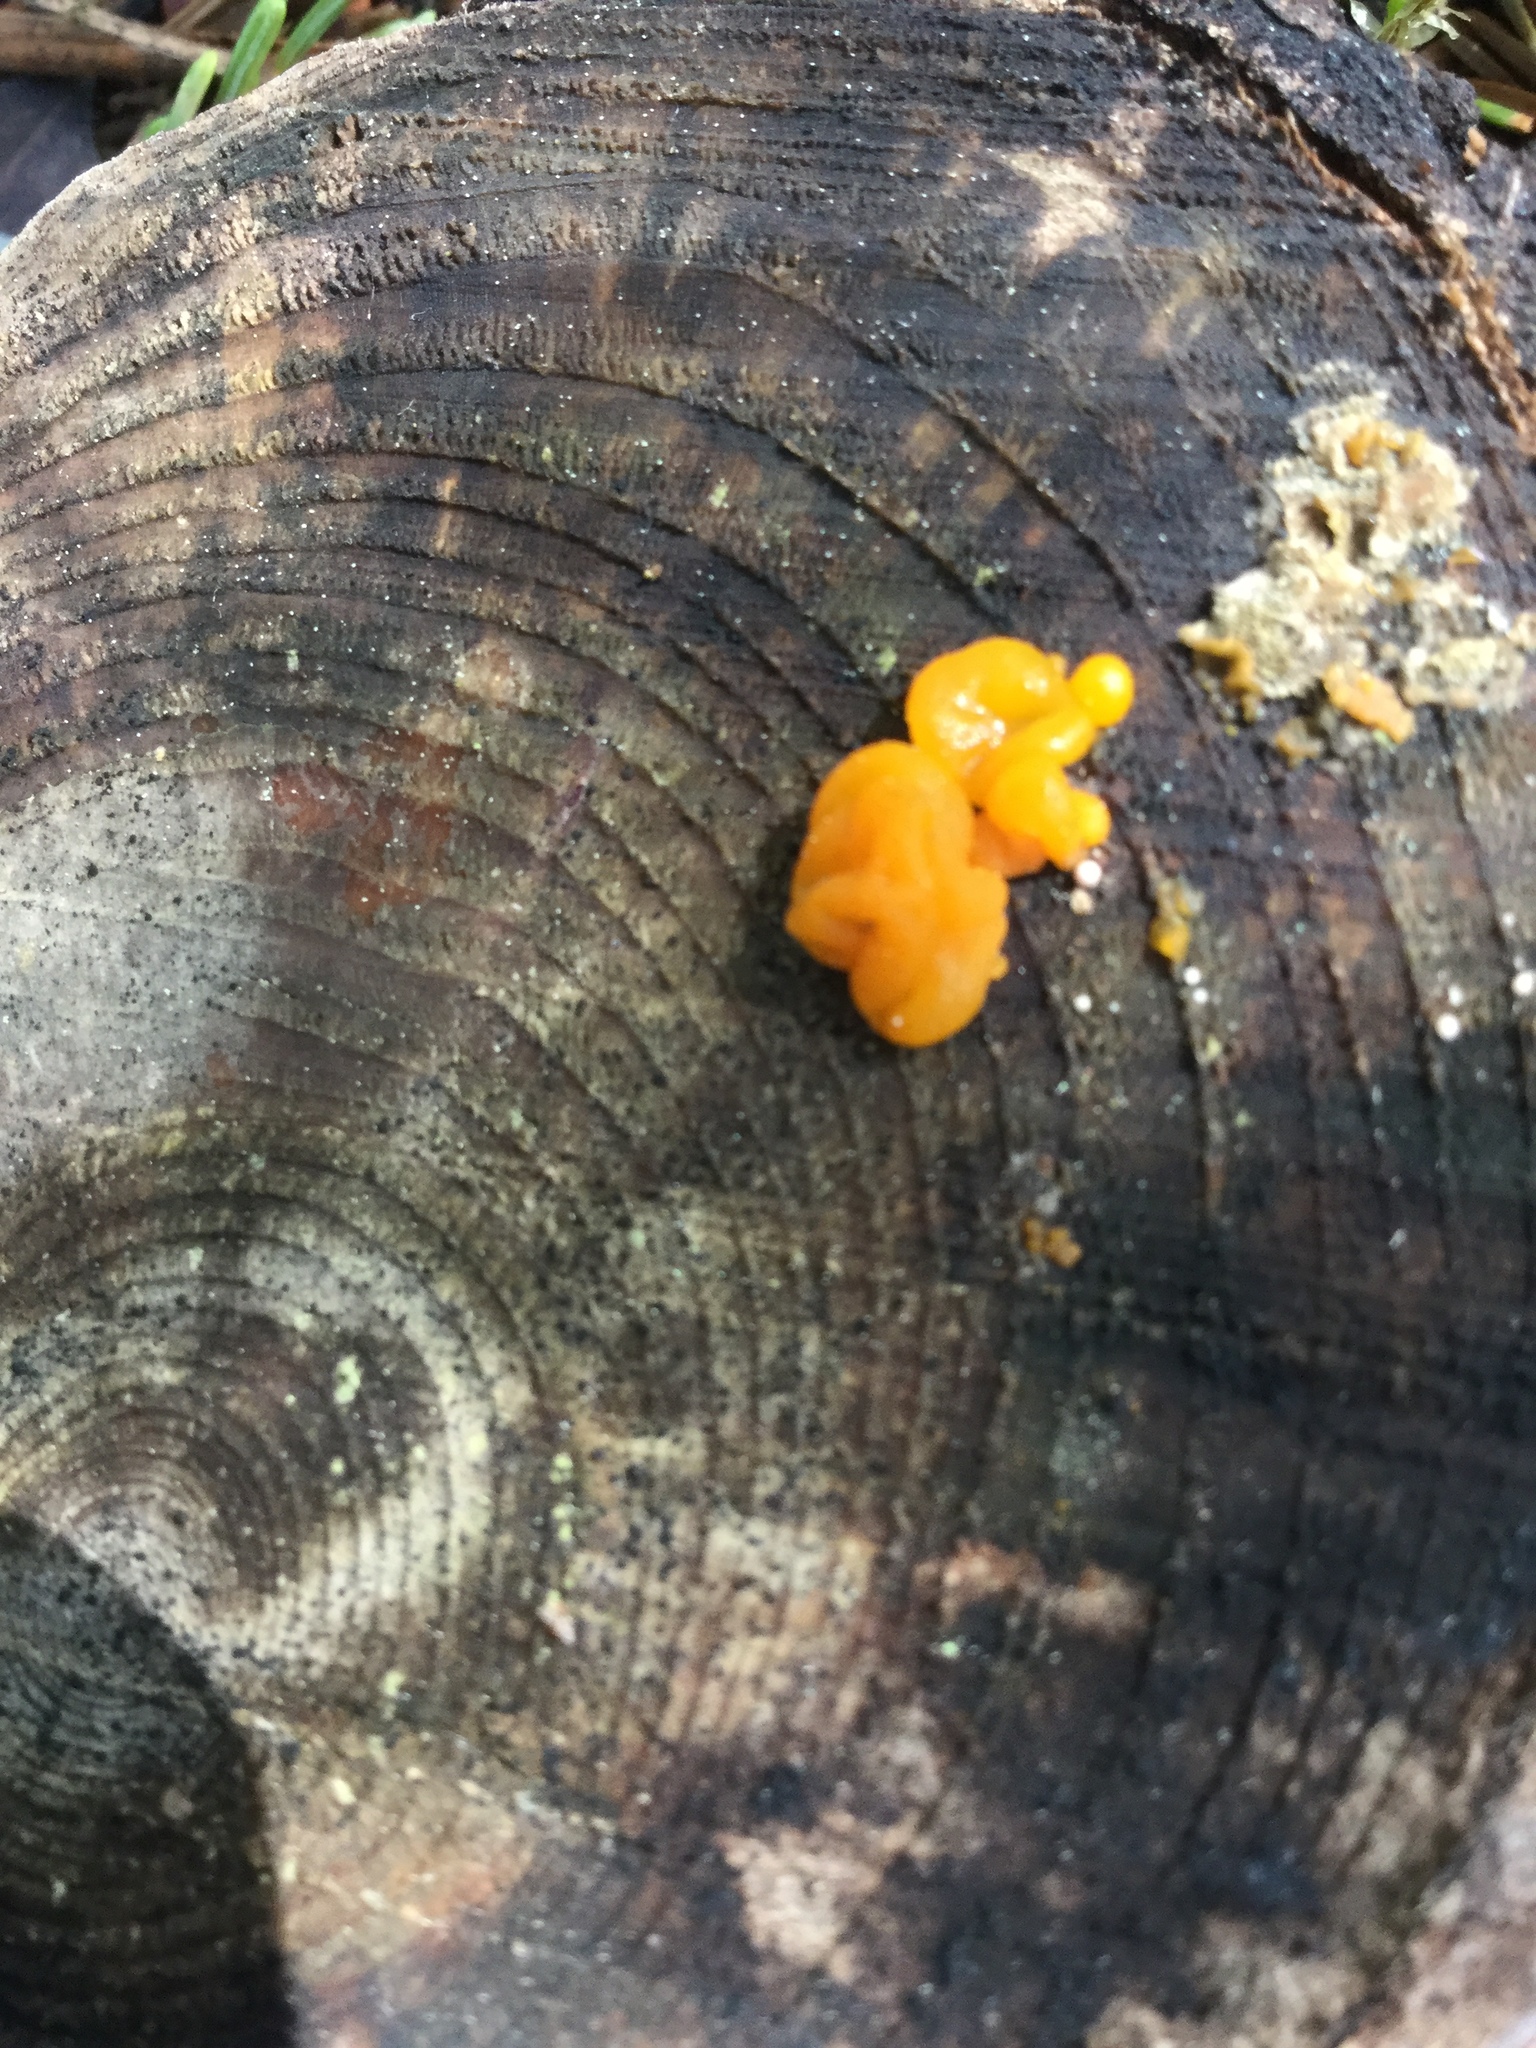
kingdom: Fungi
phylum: Basidiomycota
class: Tremellomycetes
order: Tremellales
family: Tremellaceae
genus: Tremella
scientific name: Tremella mesenterica
